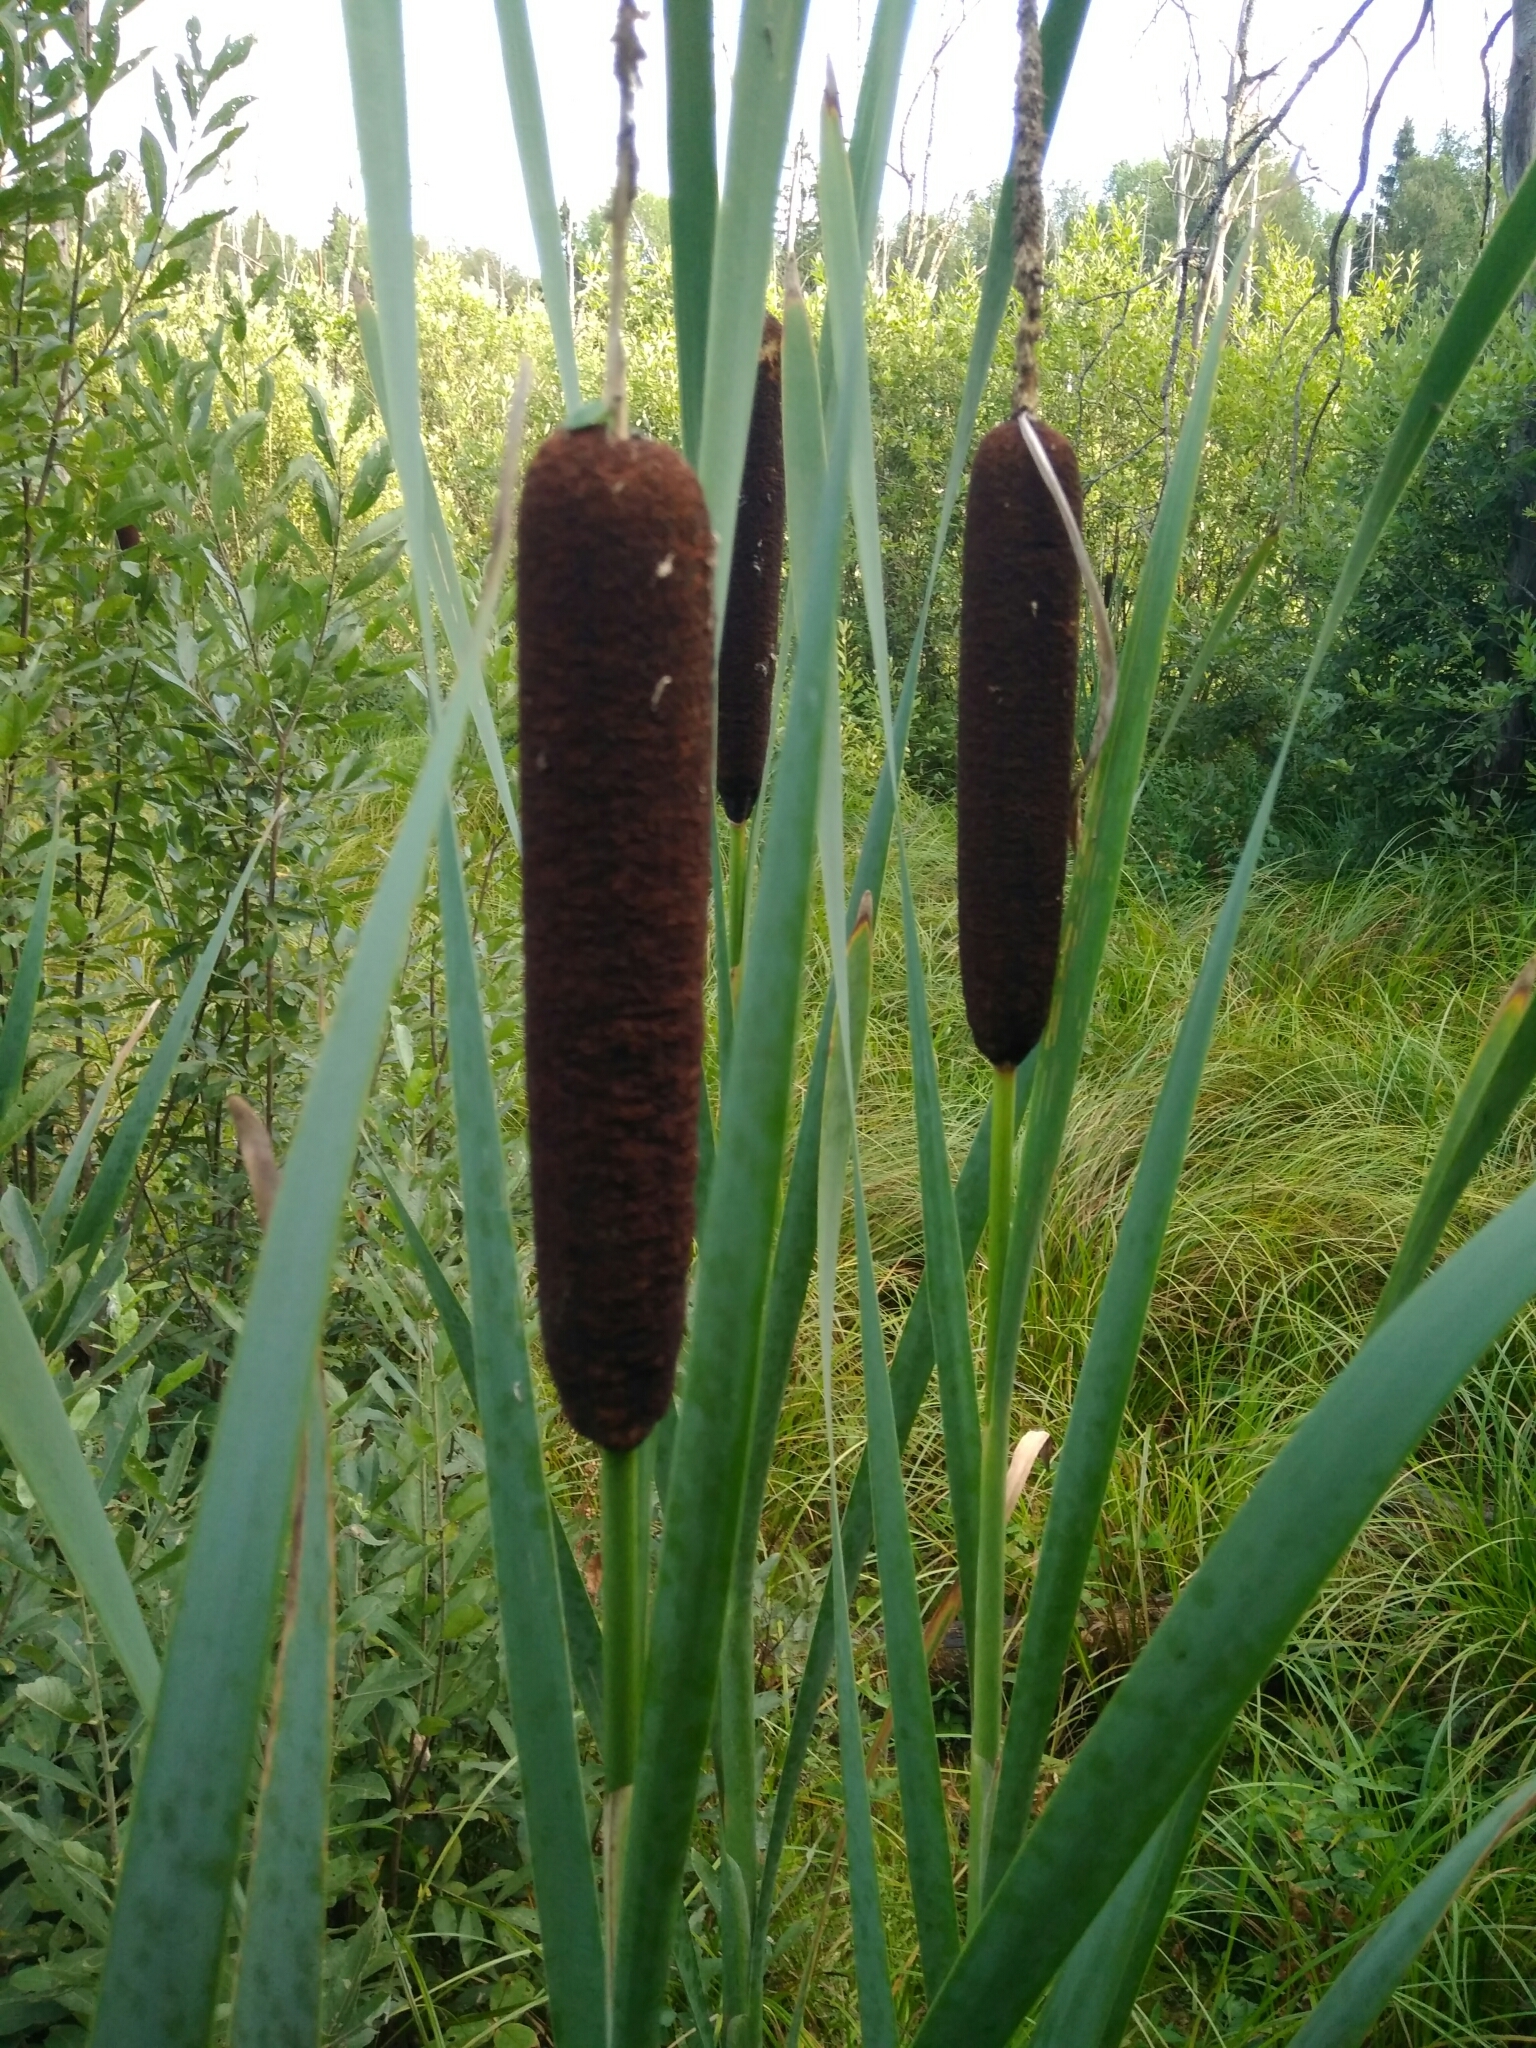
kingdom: Plantae
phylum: Tracheophyta
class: Liliopsida
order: Poales
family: Typhaceae
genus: Typha
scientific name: Typha latifolia
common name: Broadleaf cattail
